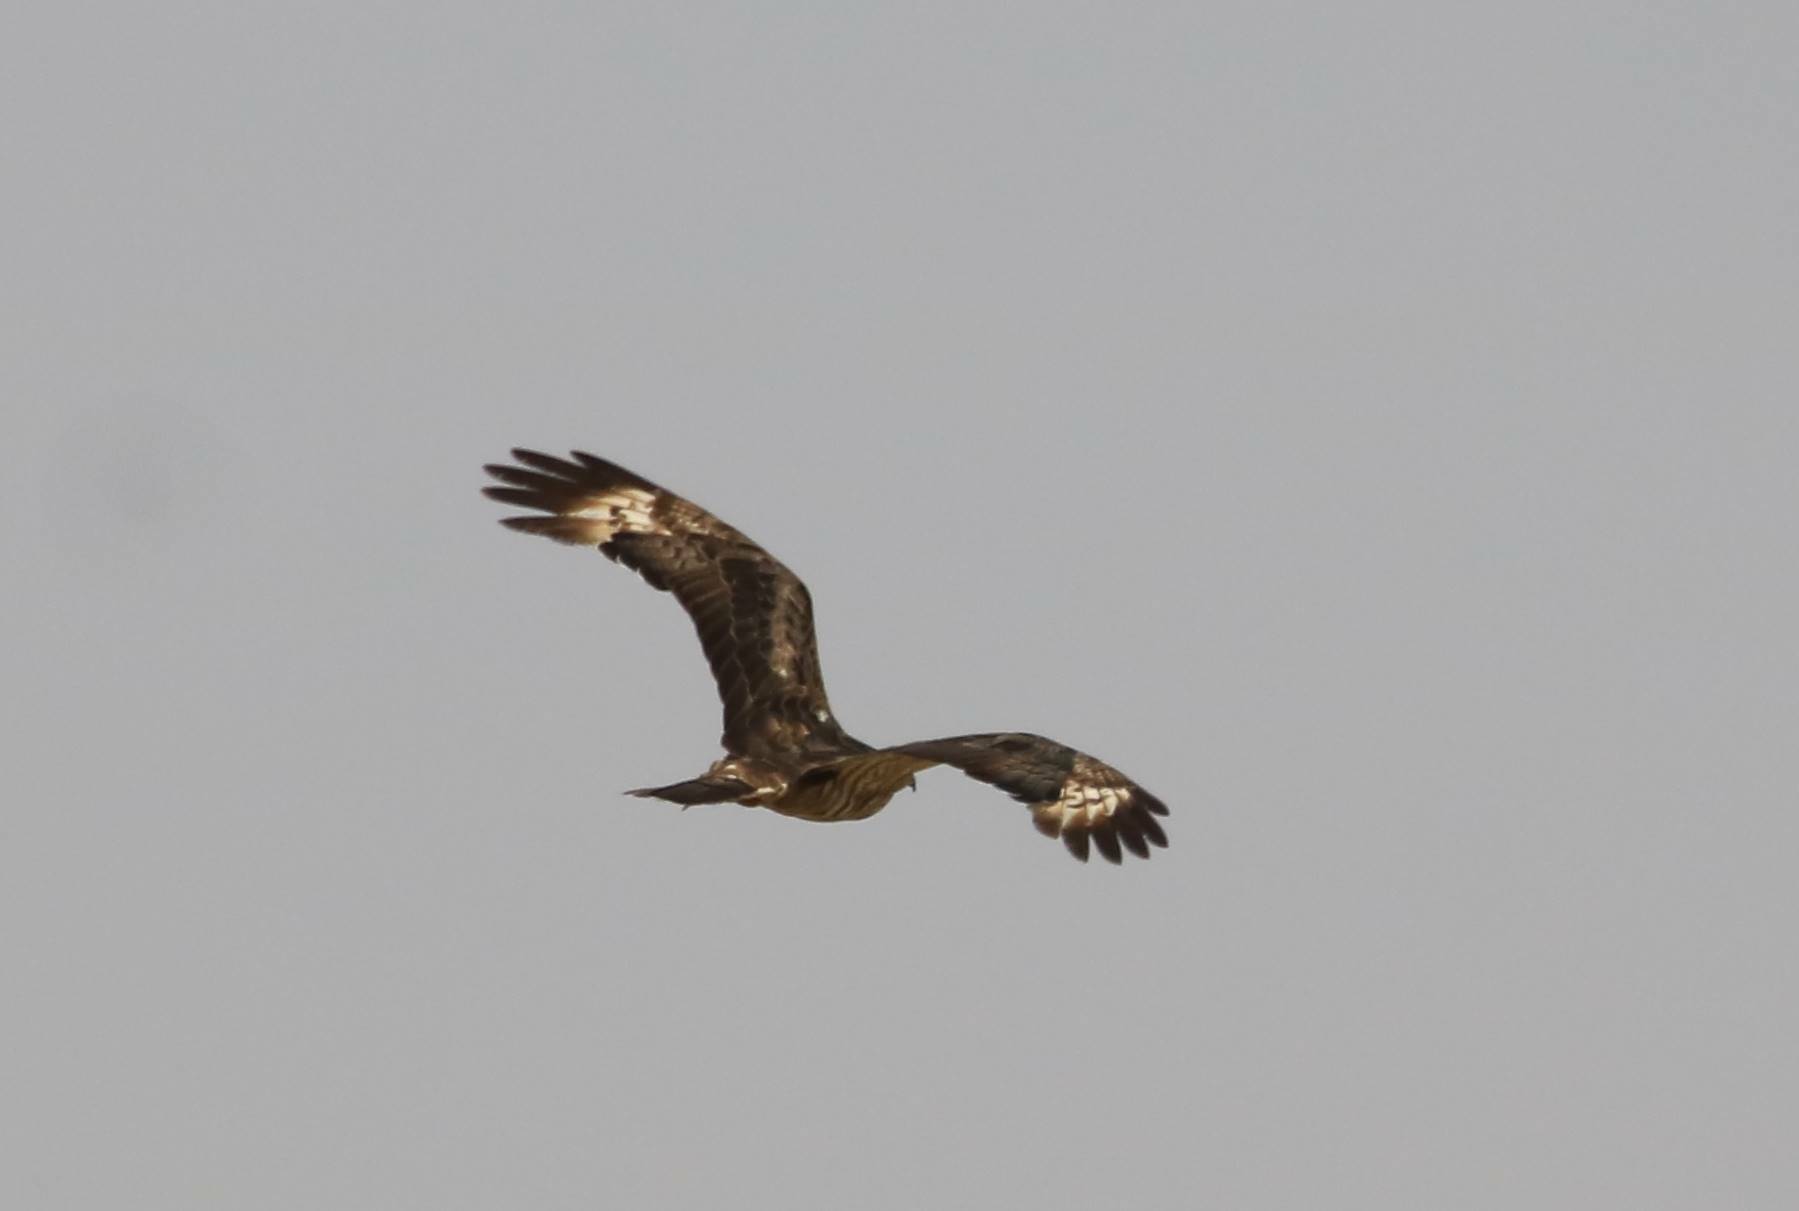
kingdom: Animalia
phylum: Chordata
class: Aves
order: Accipitriformes
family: Accipitridae
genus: Pernis
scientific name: Pernis apivorus
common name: European honey buzzard
